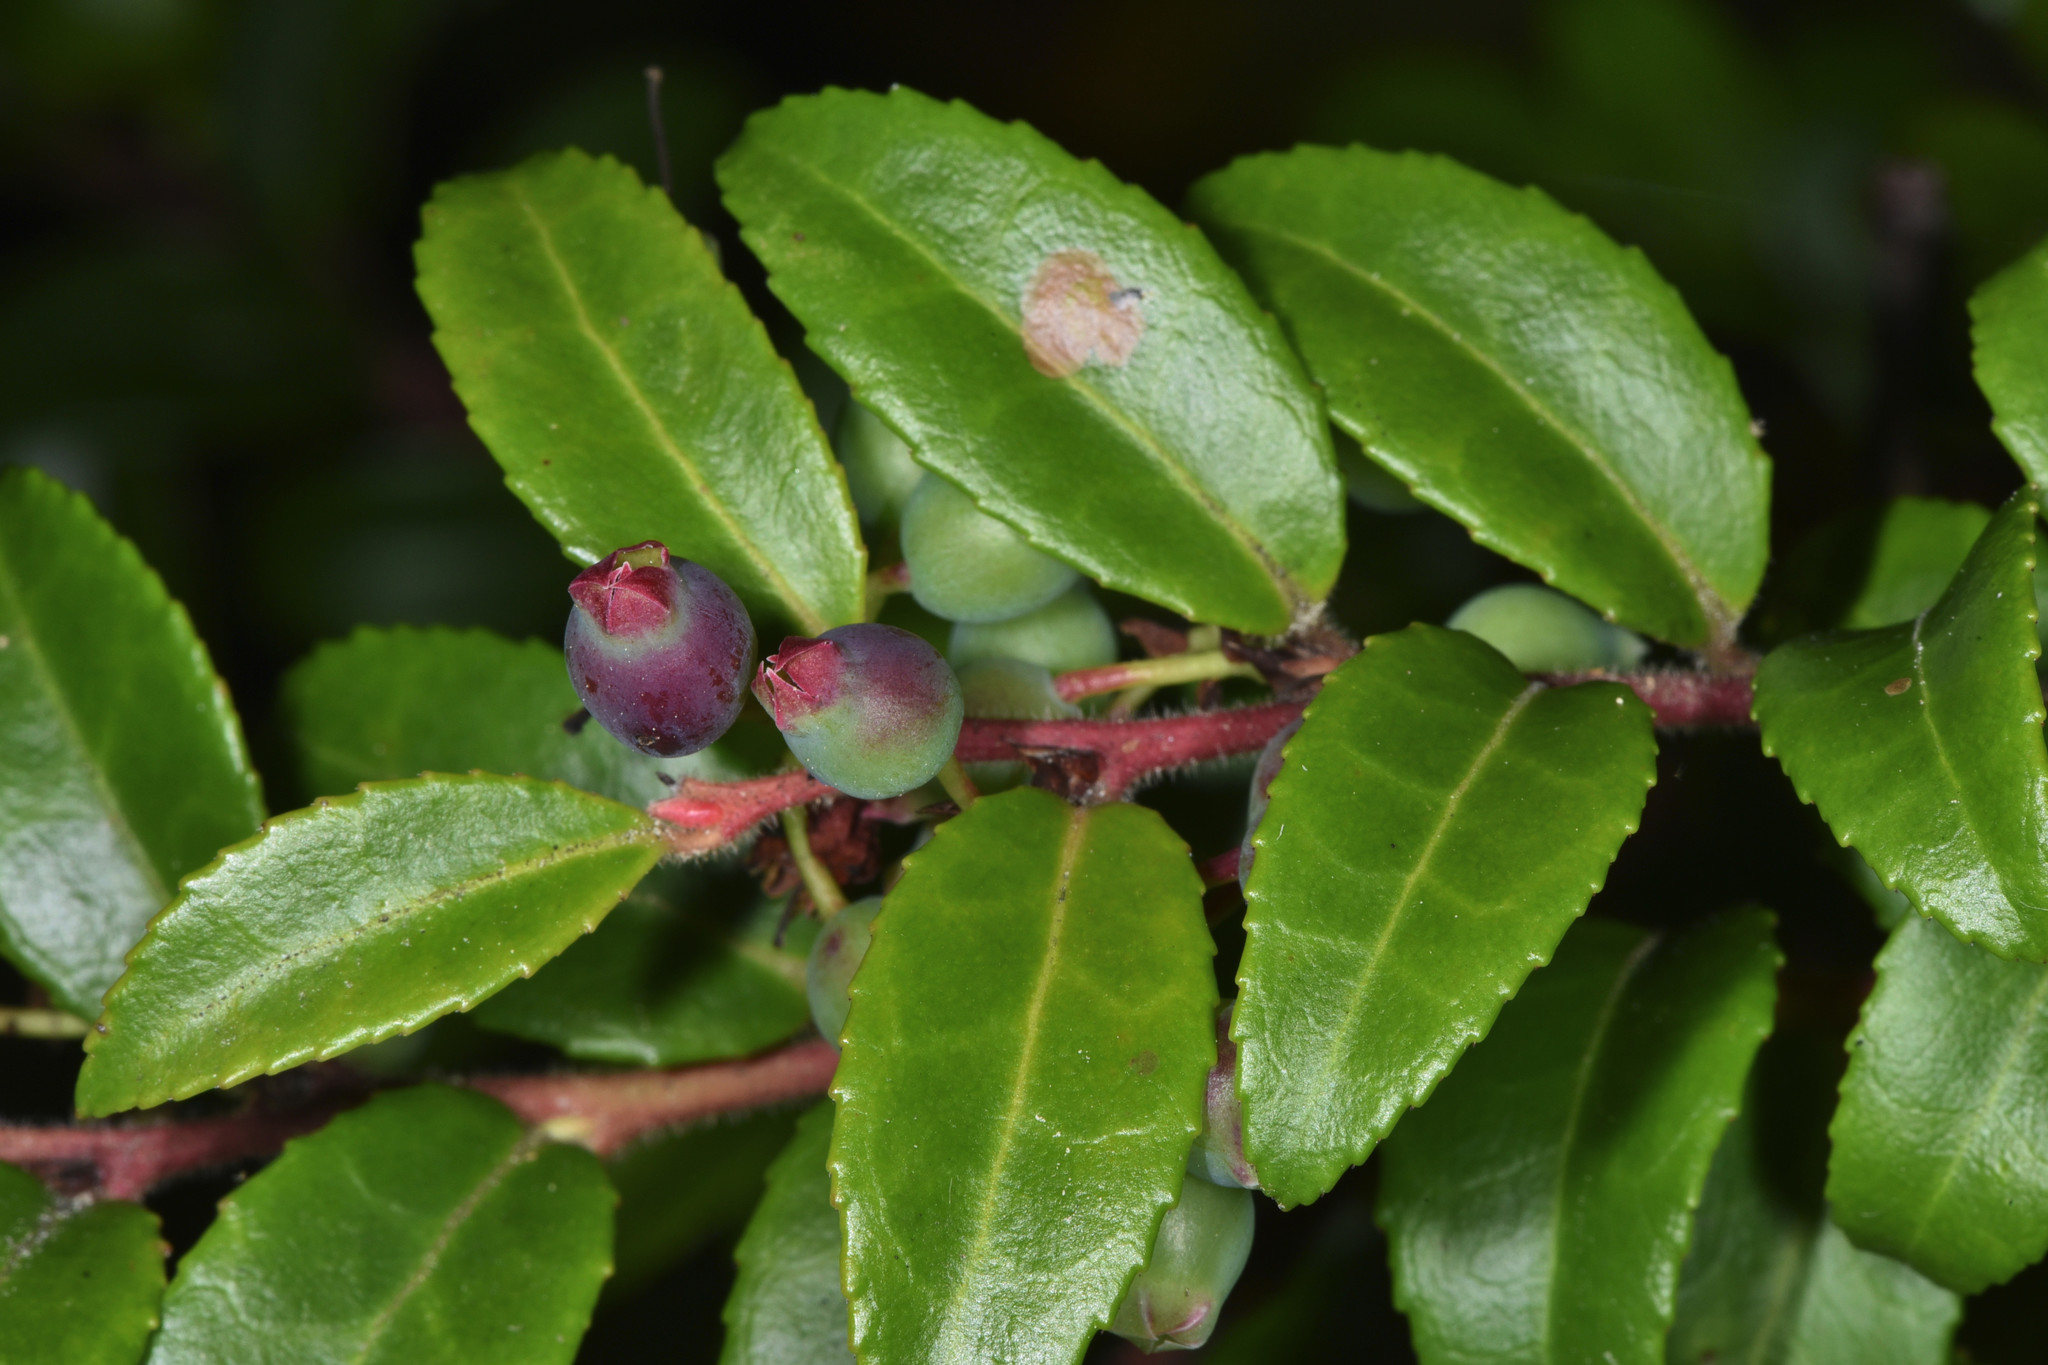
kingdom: Plantae
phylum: Tracheophyta
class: Magnoliopsida
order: Ericales
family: Ericaceae
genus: Vaccinium
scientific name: Vaccinium ovatum
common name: California-huckleberry
